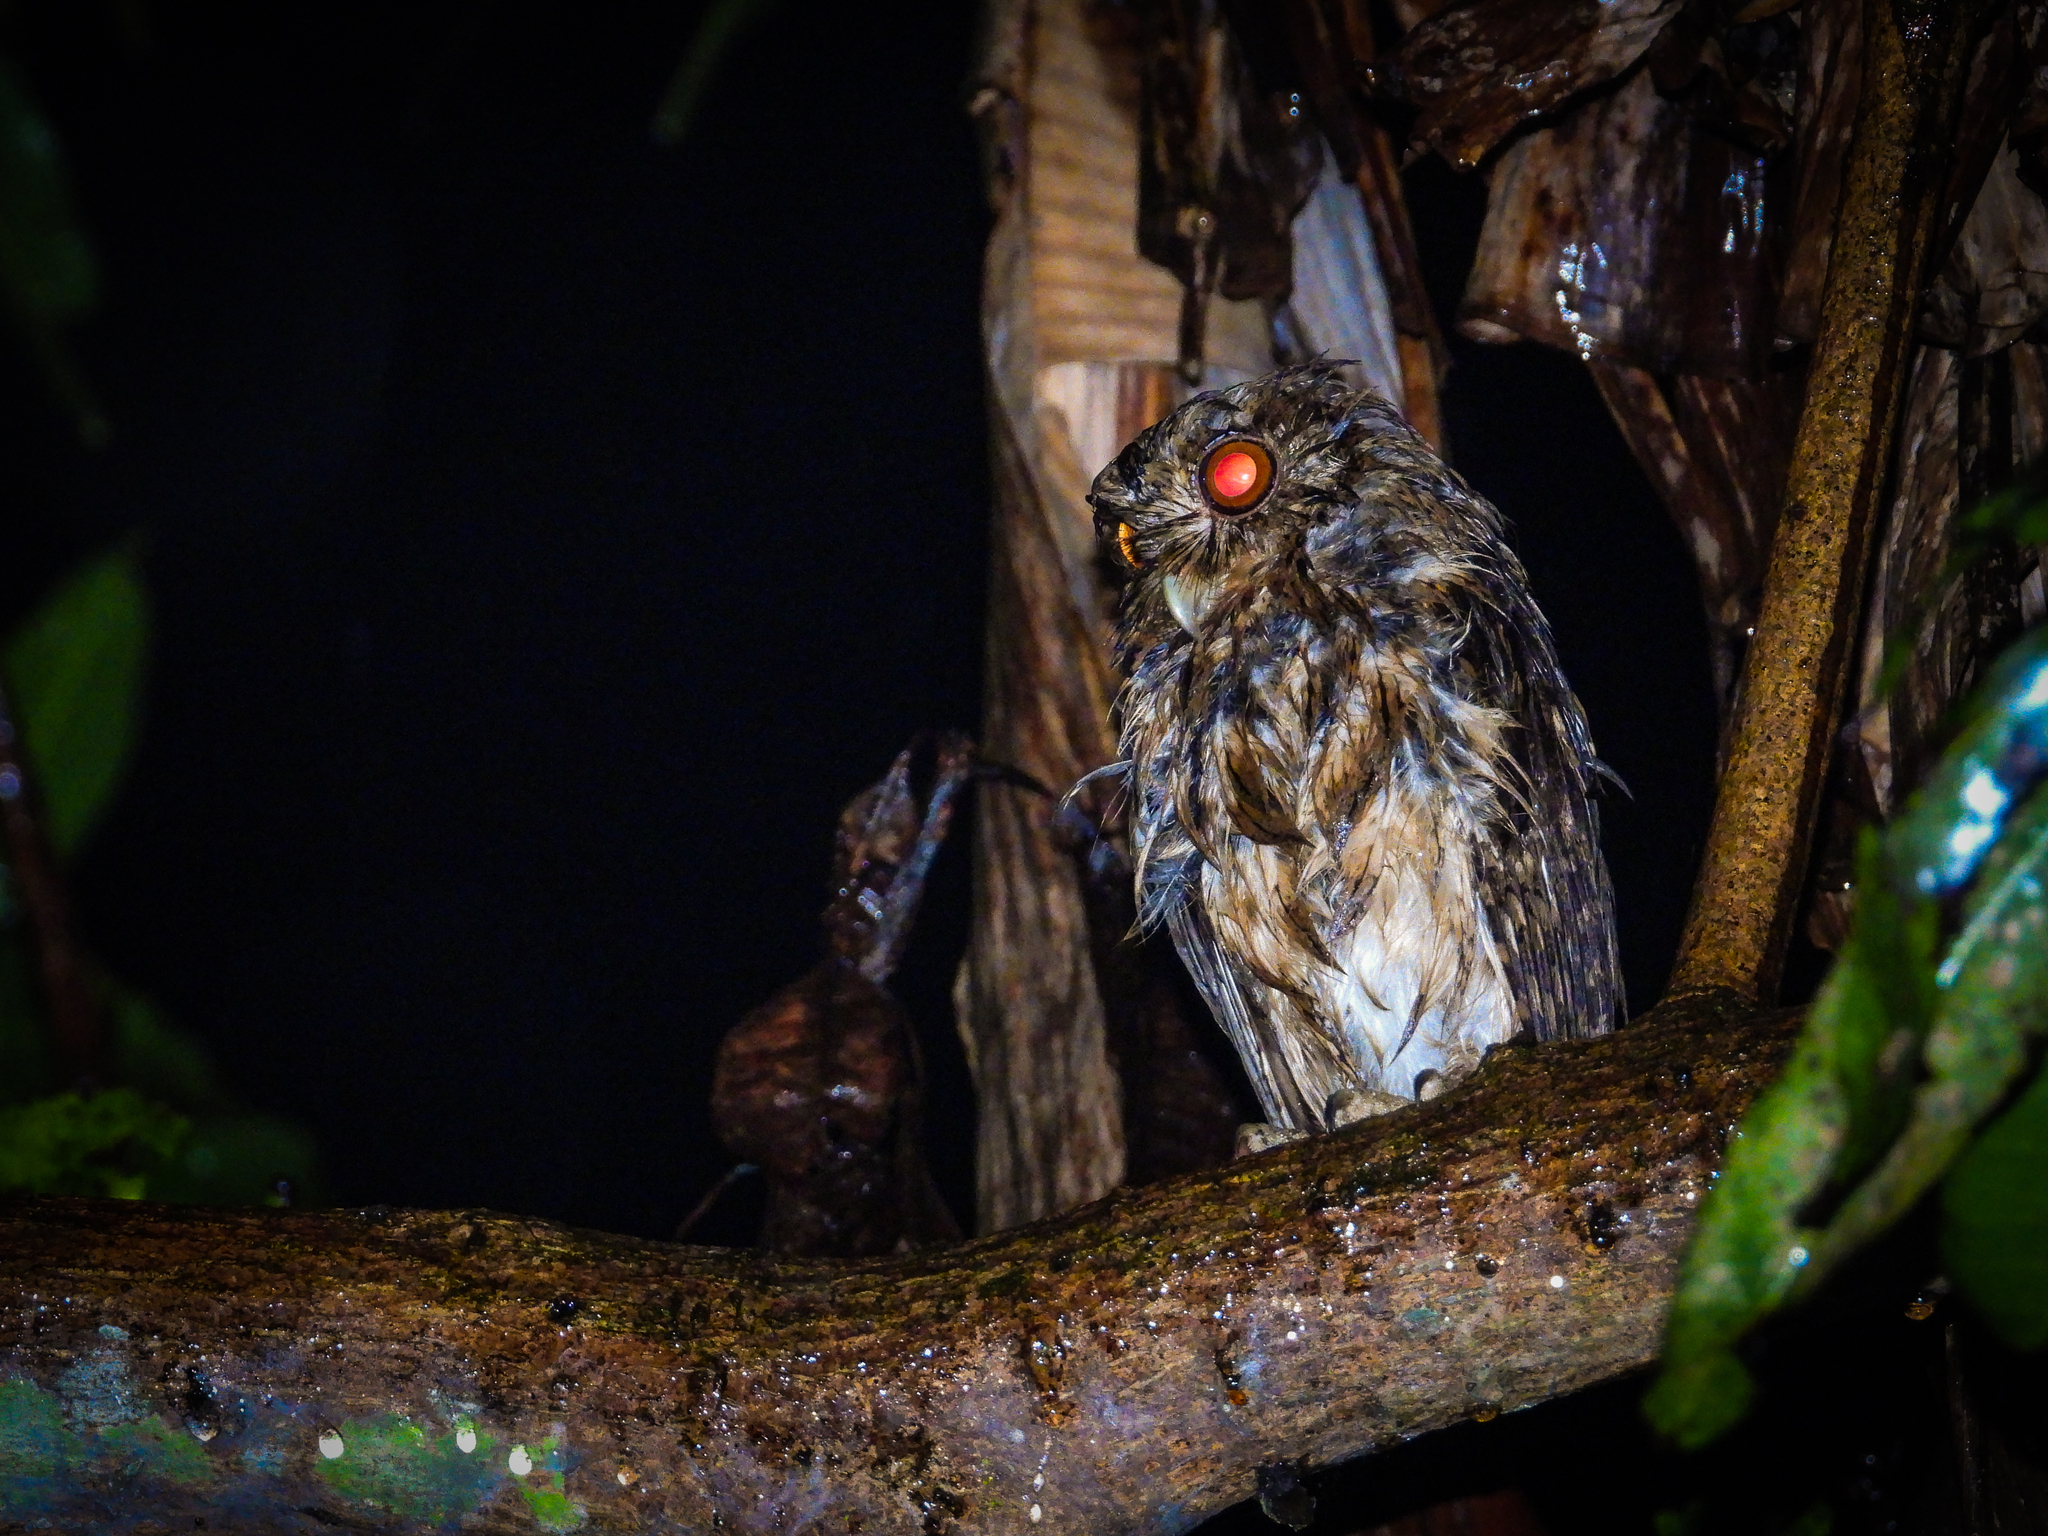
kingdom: Animalia
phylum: Chordata
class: Aves
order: Strigiformes
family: Strigidae
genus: Otus
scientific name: Otus lempiji
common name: Sunda scops-owl
